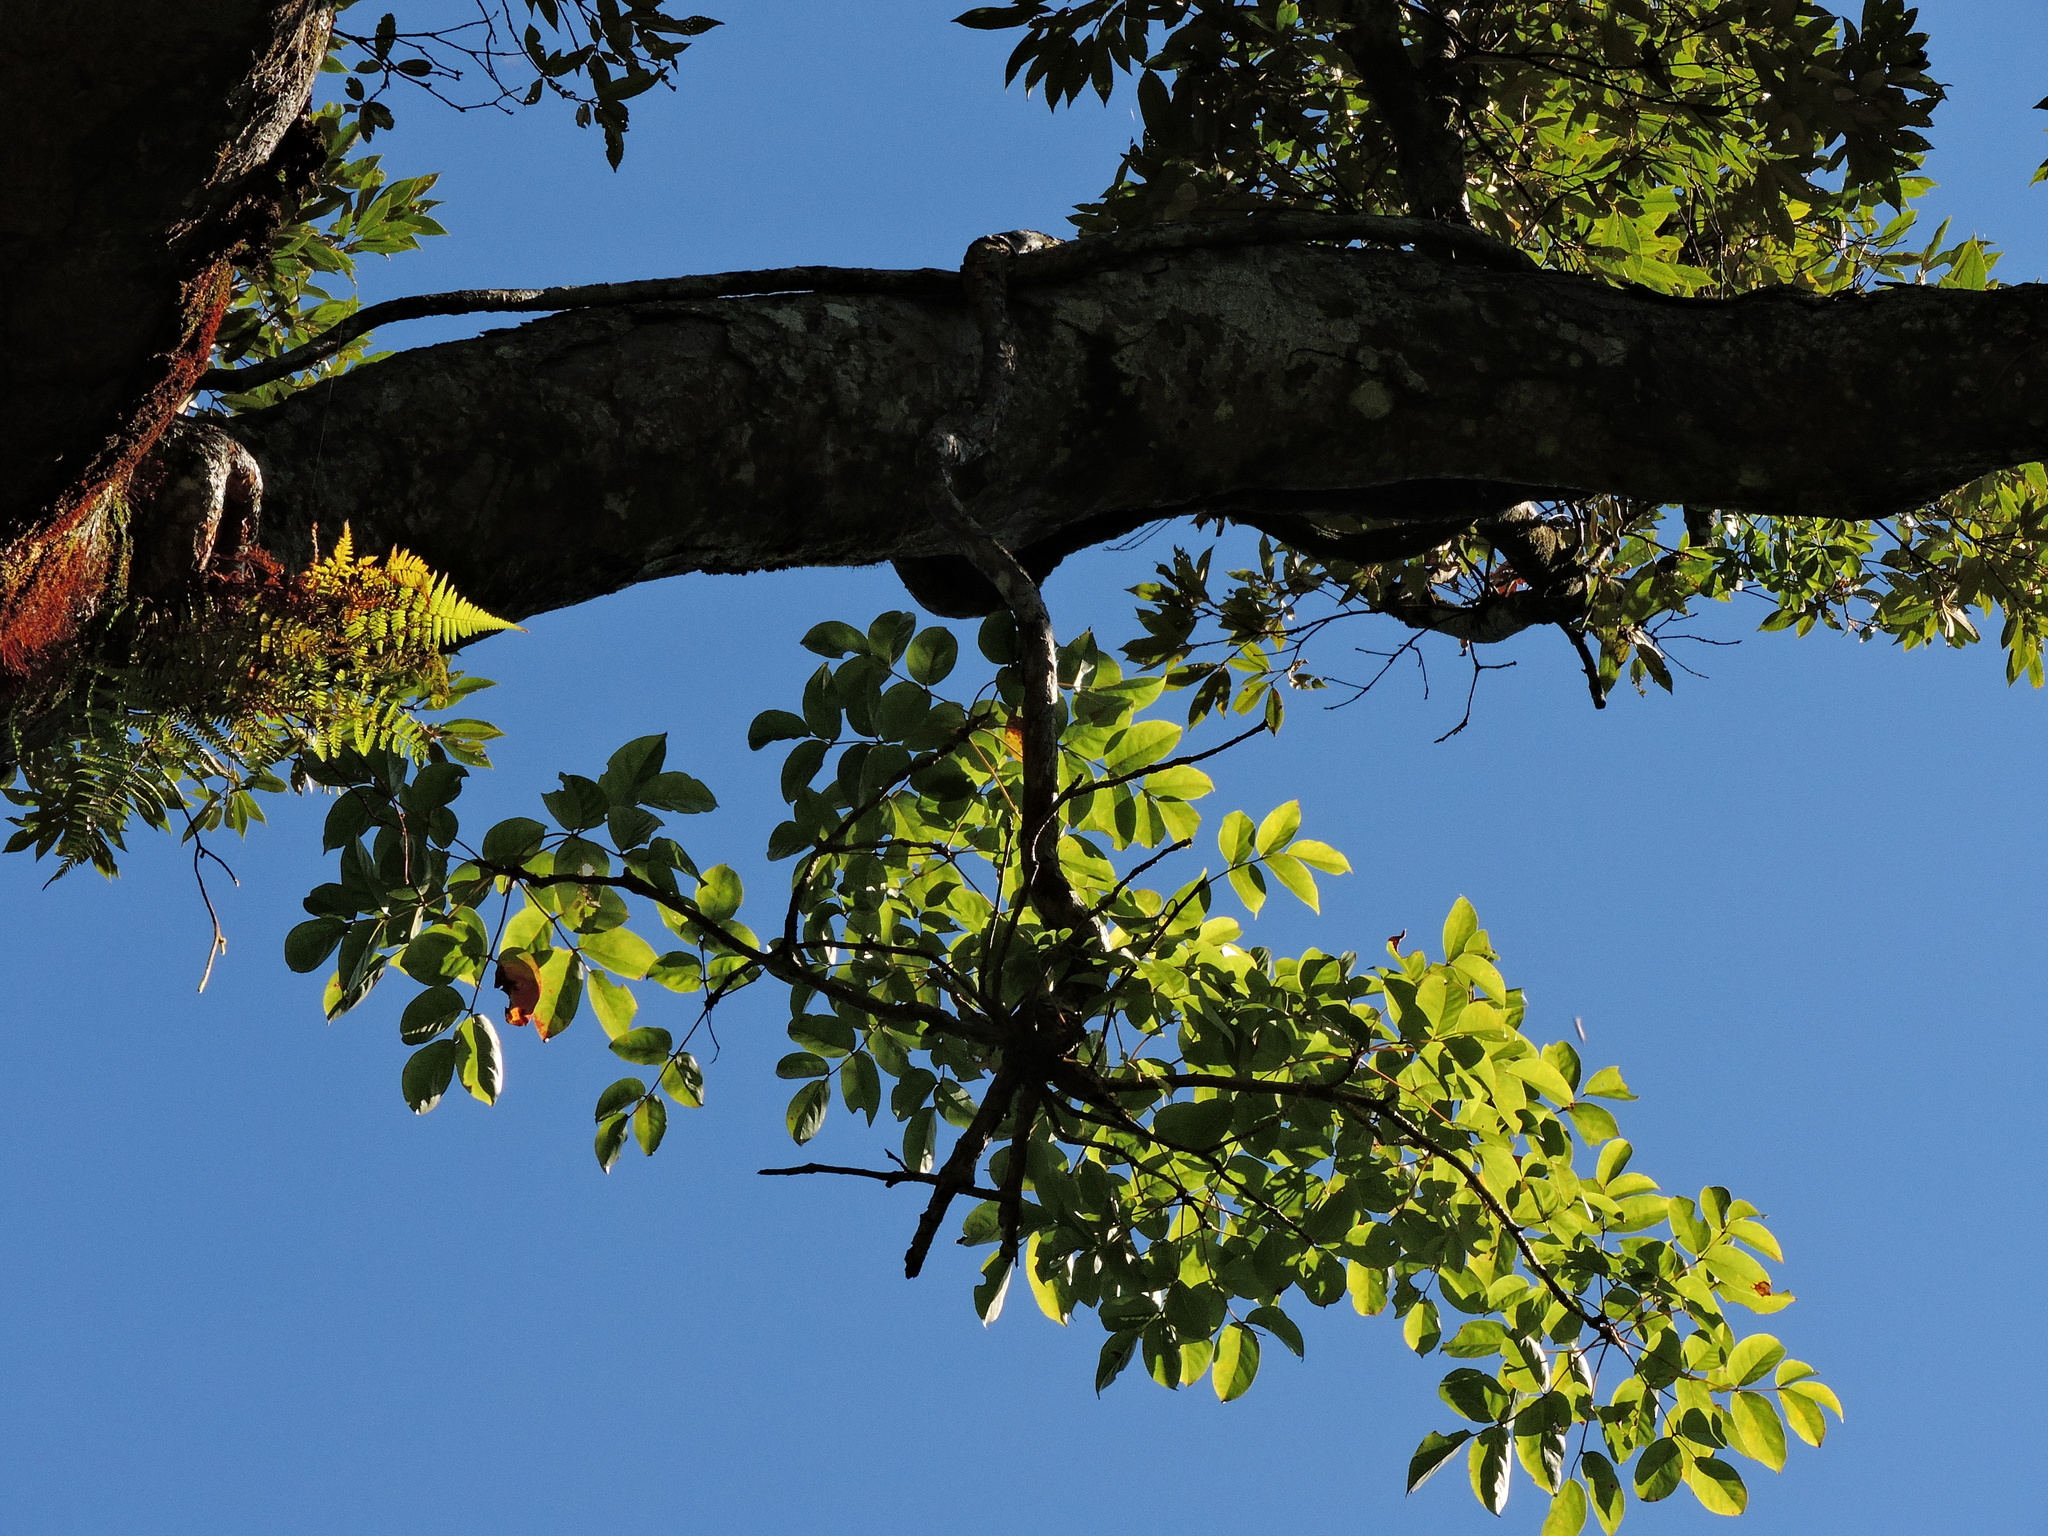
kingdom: Plantae
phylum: Tracheophyta
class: Magnoliopsida
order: Apiales
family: Araliaceae
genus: Aralia
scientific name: Aralia castanopsisicola
